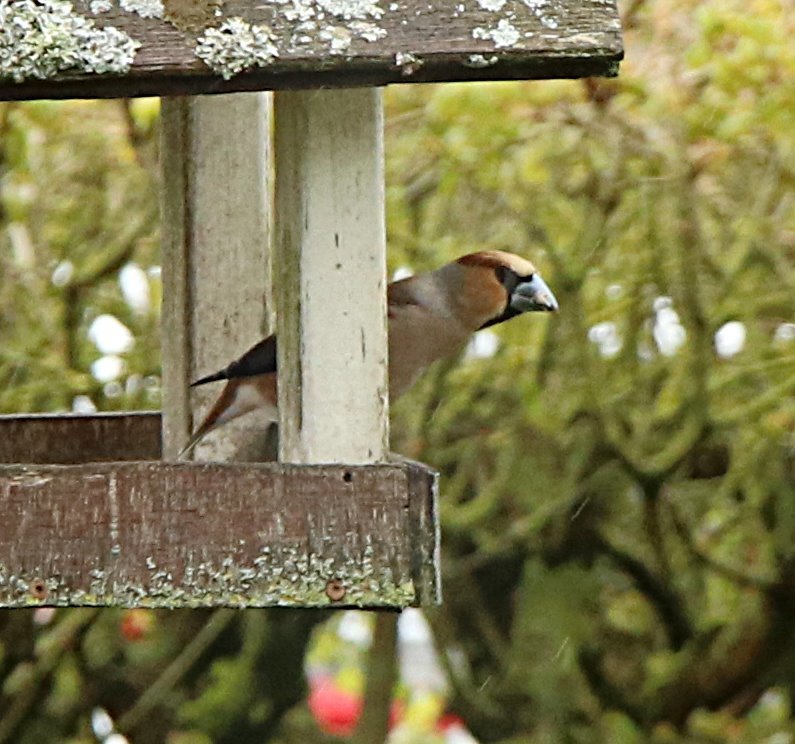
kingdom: Animalia
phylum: Chordata
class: Aves
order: Passeriformes
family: Fringillidae
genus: Coccothraustes
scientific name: Coccothraustes coccothraustes
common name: Hawfinch
